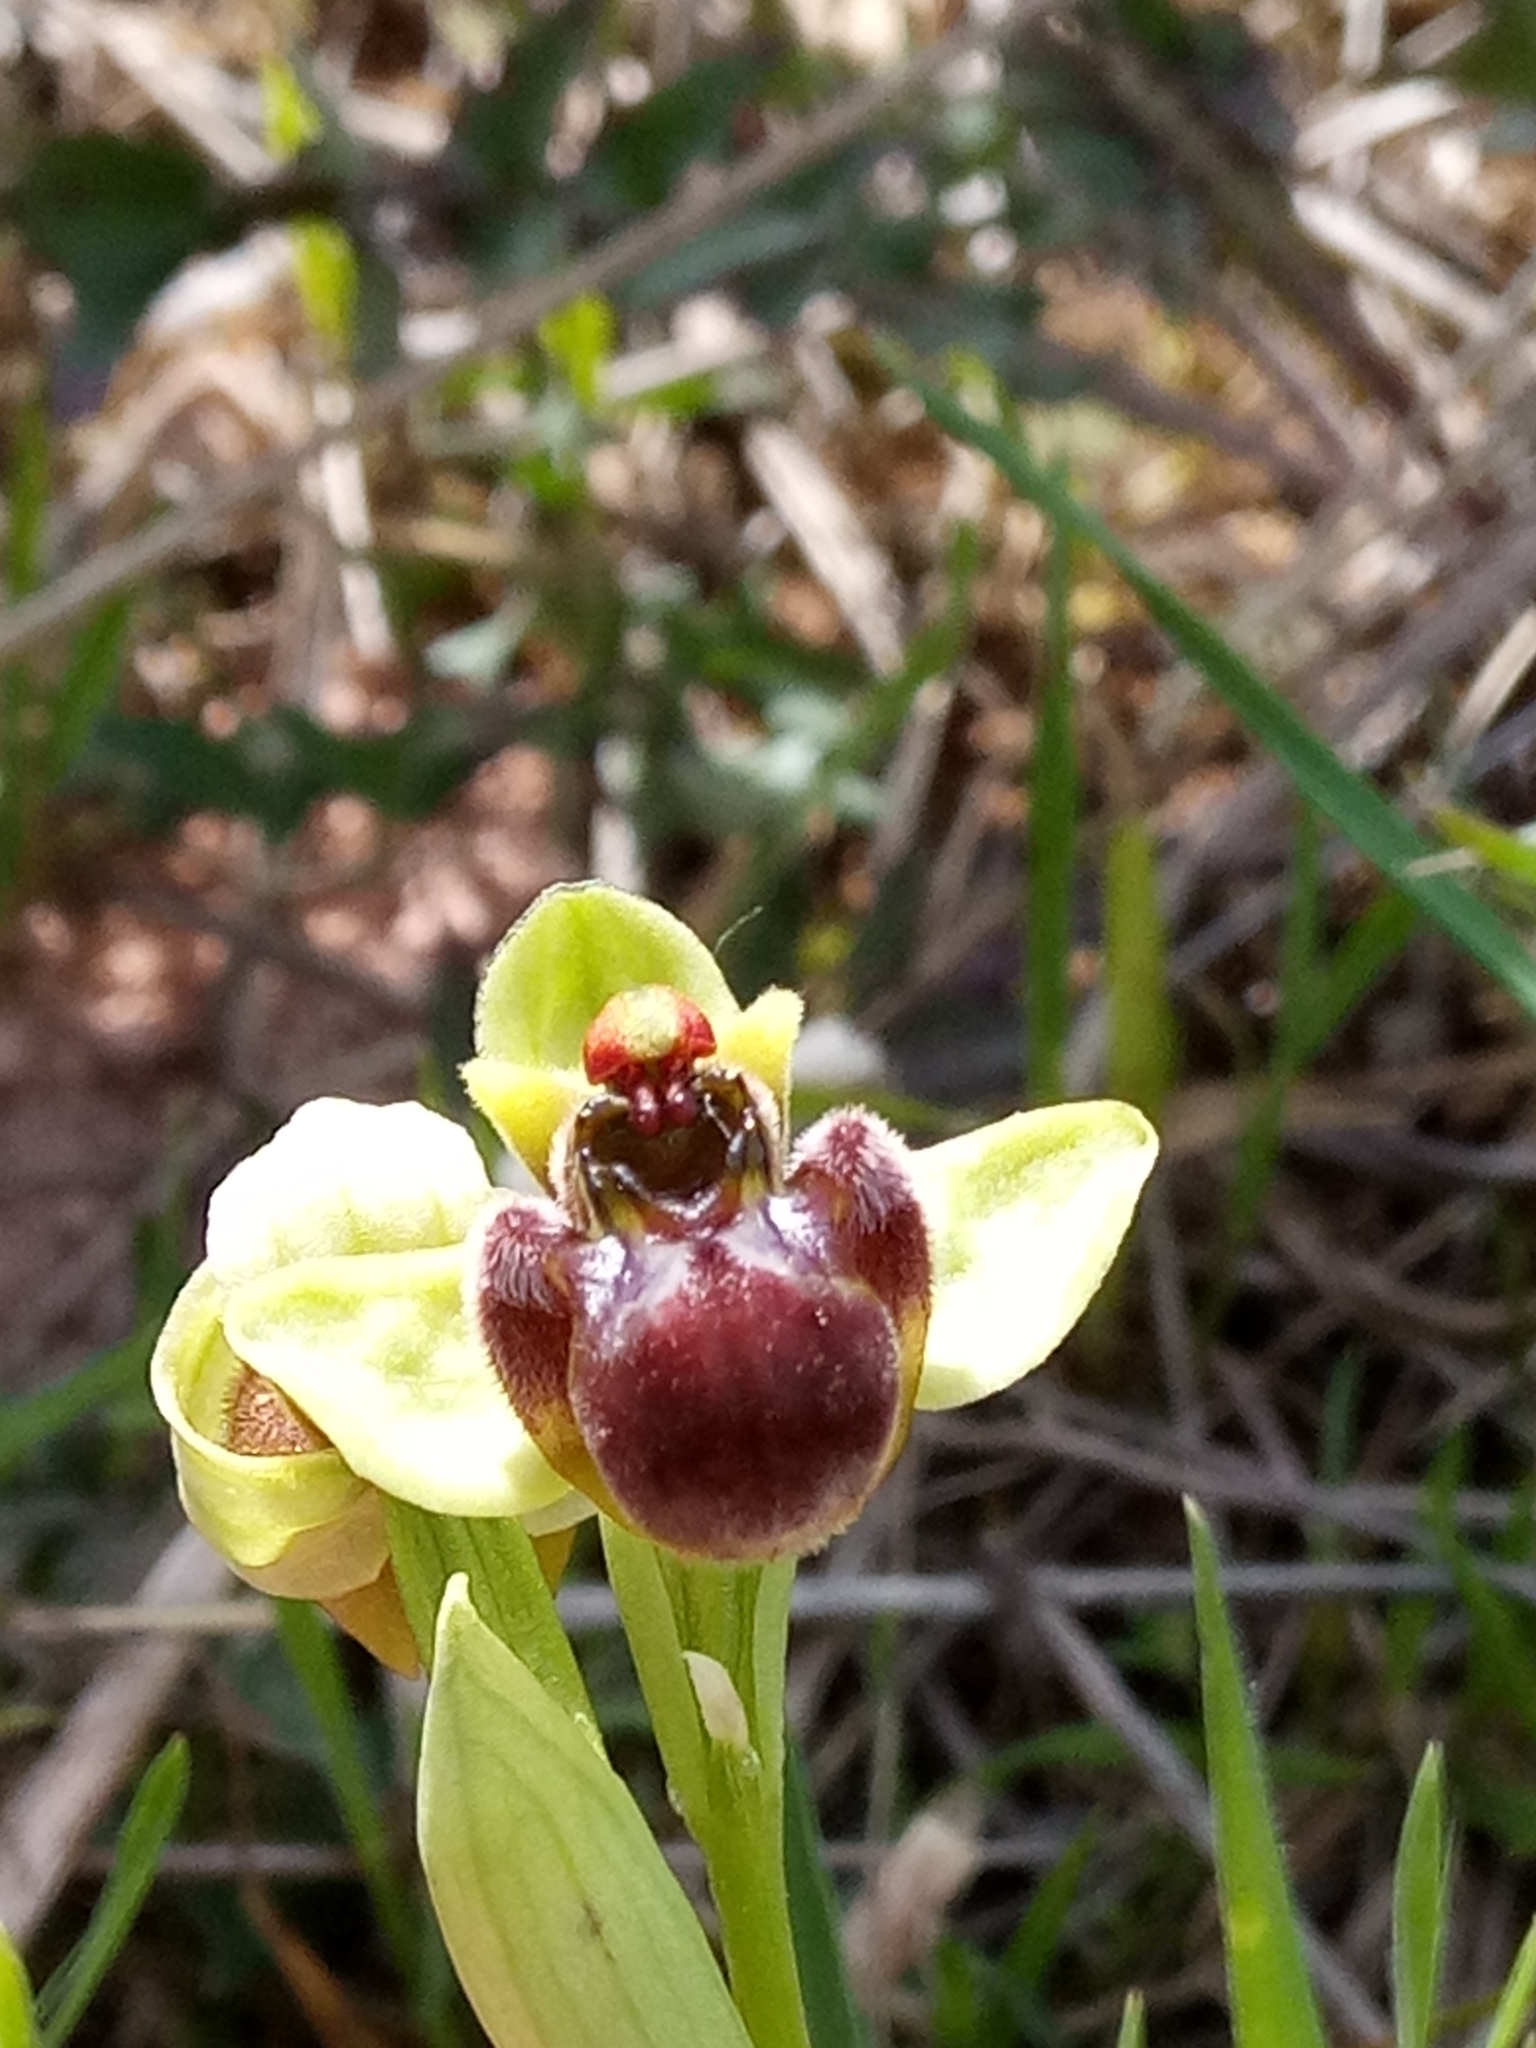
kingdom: Plantae
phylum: Tracheophyta
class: Liliopsida
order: Asparagales
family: Orchidaceae
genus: Ophrys
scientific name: Ophrys bombyliflora
